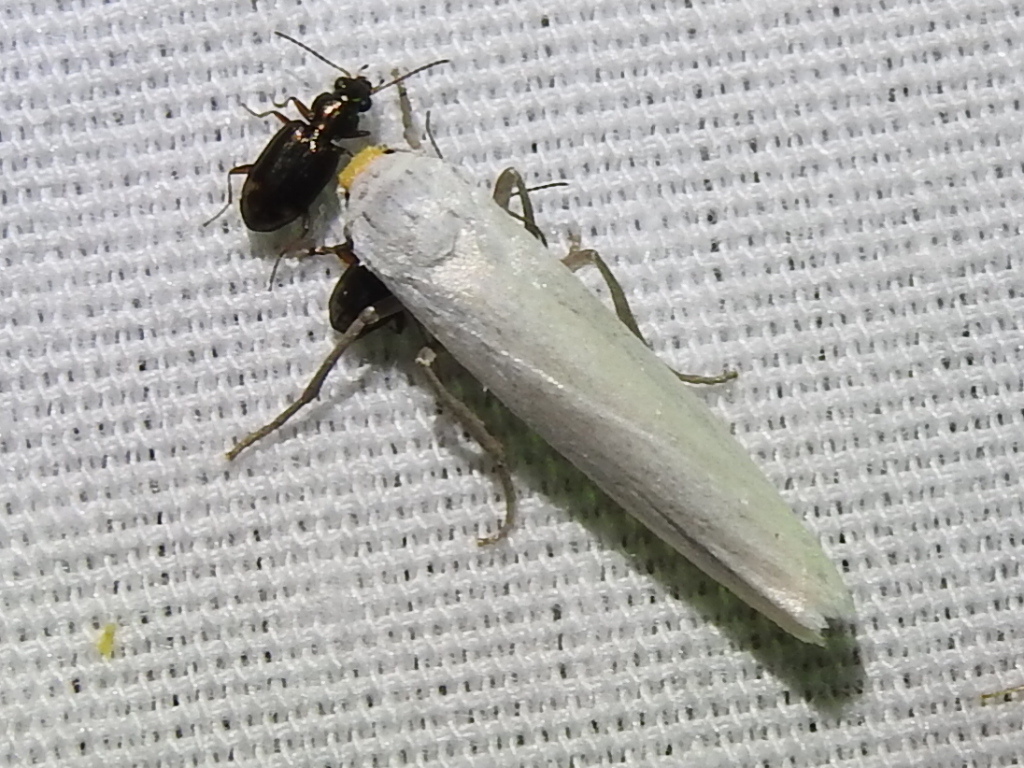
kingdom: Animalia
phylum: Arthropoda
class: Insecta
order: Lepidoptera
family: Erebidae
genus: Crambidia
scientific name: Crambidia cephalica
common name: Yellow-headed lichen moth
